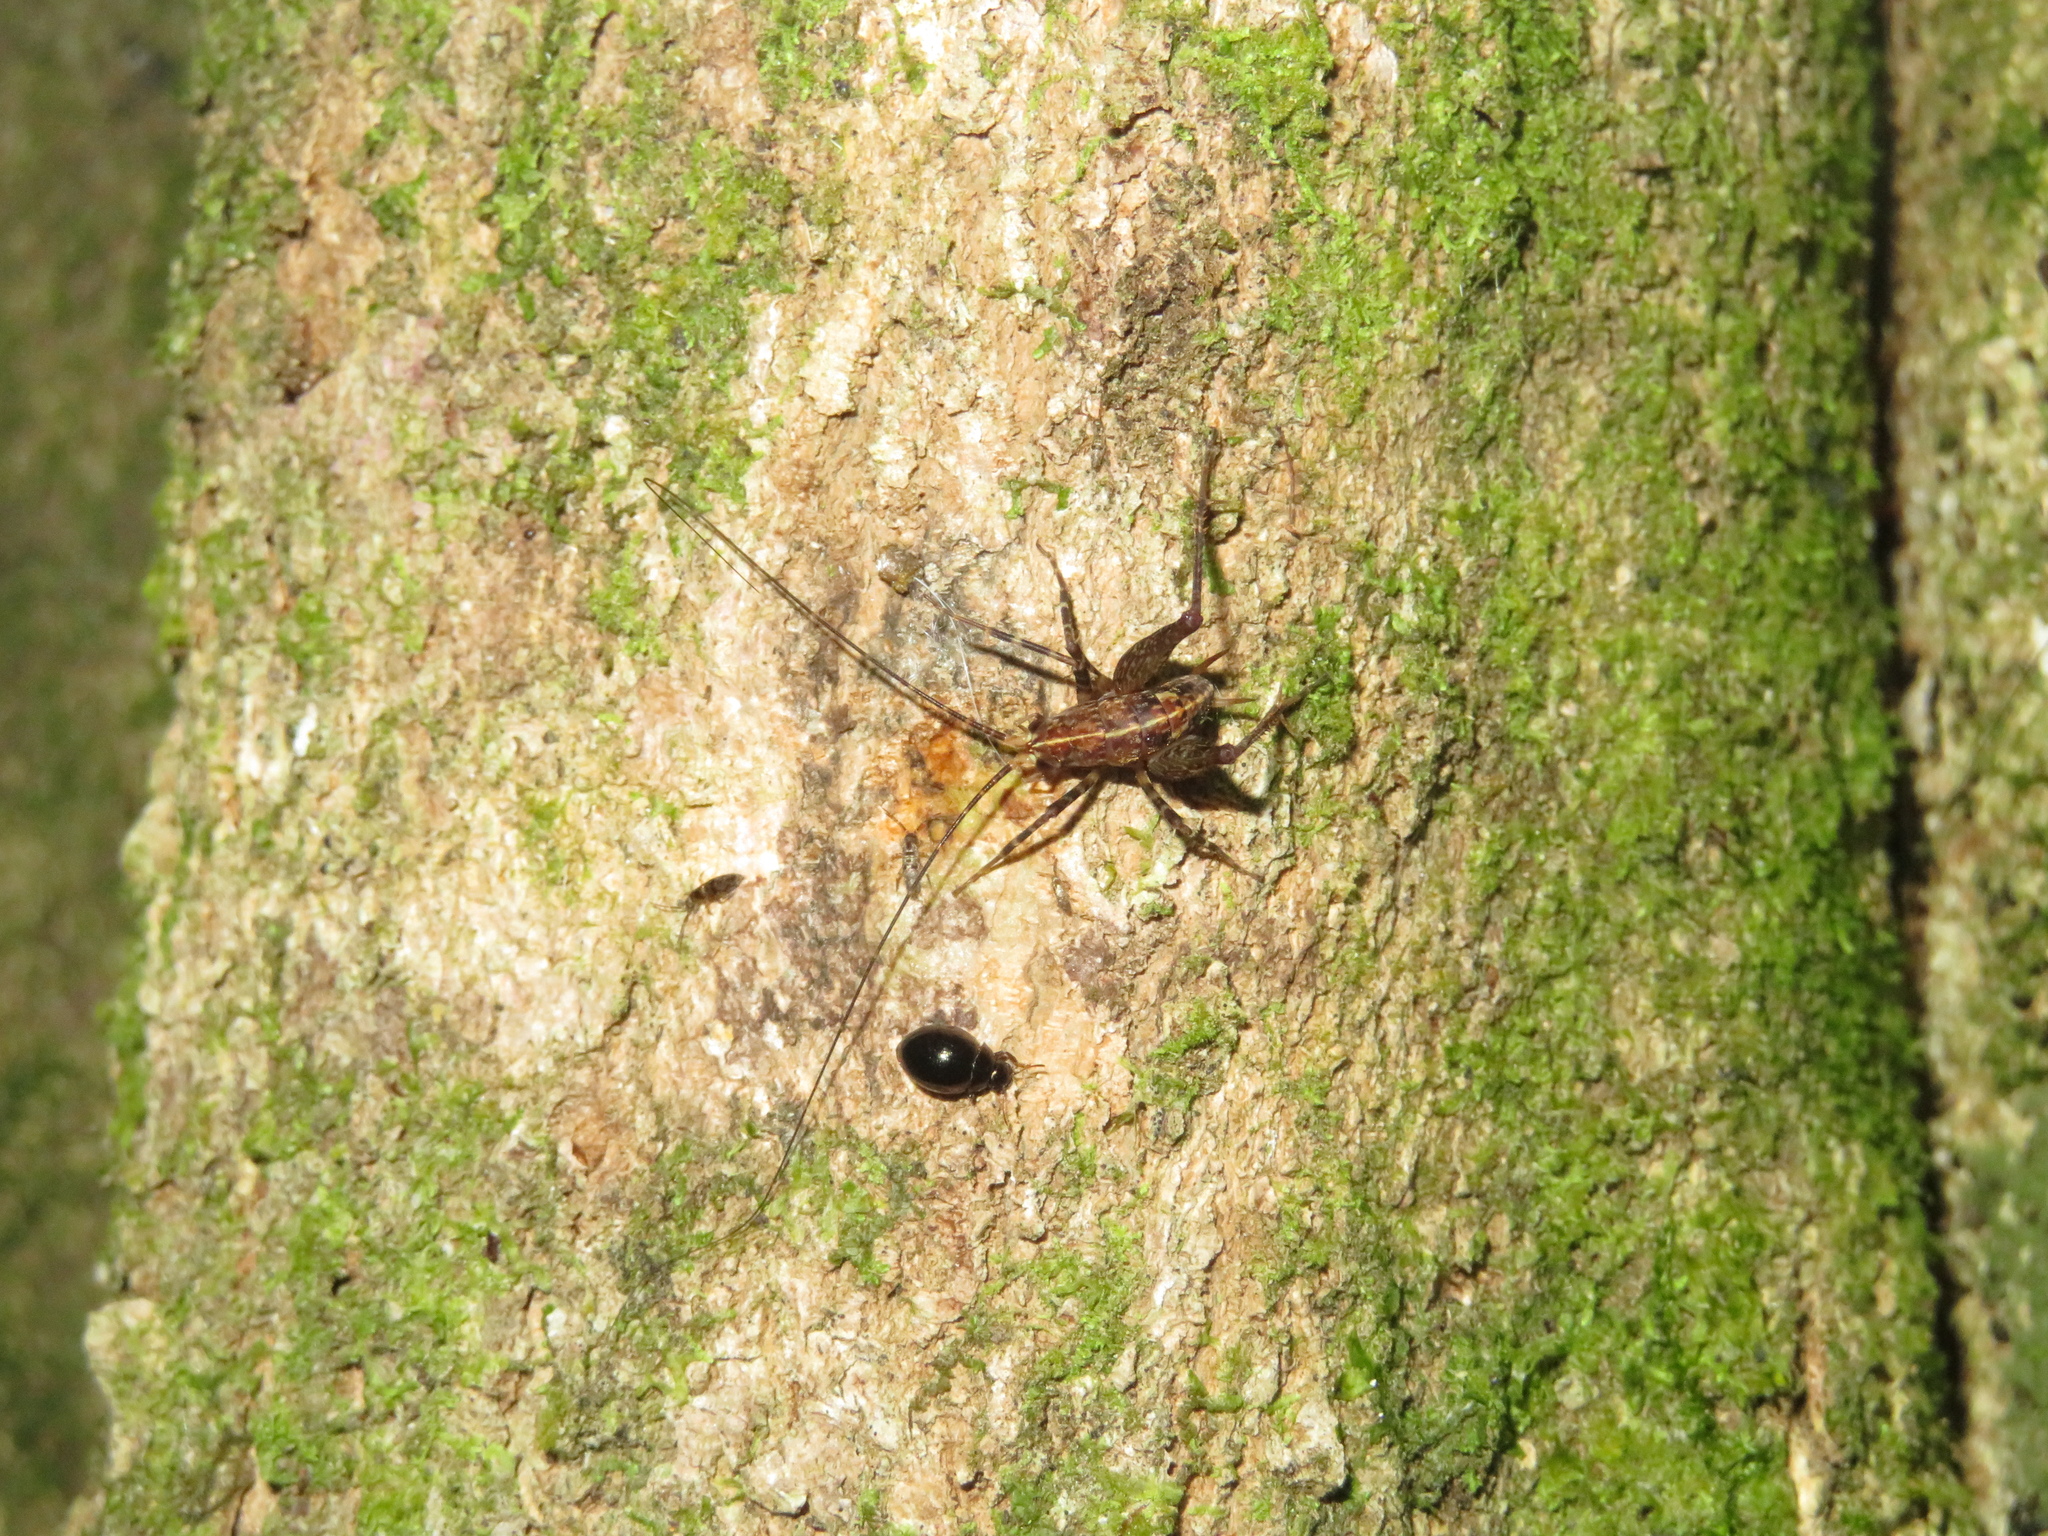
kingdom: Animalia
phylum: Arthropoda
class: Insecta
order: Orthoptera
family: Rhaphidophoridae
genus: Pleioplectron
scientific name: Pleioplectron hudsoni
